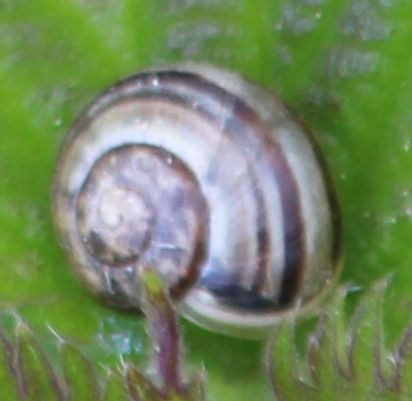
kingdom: Animalia
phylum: Mollusca
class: Gastropoda
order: Stylommatophora
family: Helicidae
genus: Cepaea
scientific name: Cepaea
